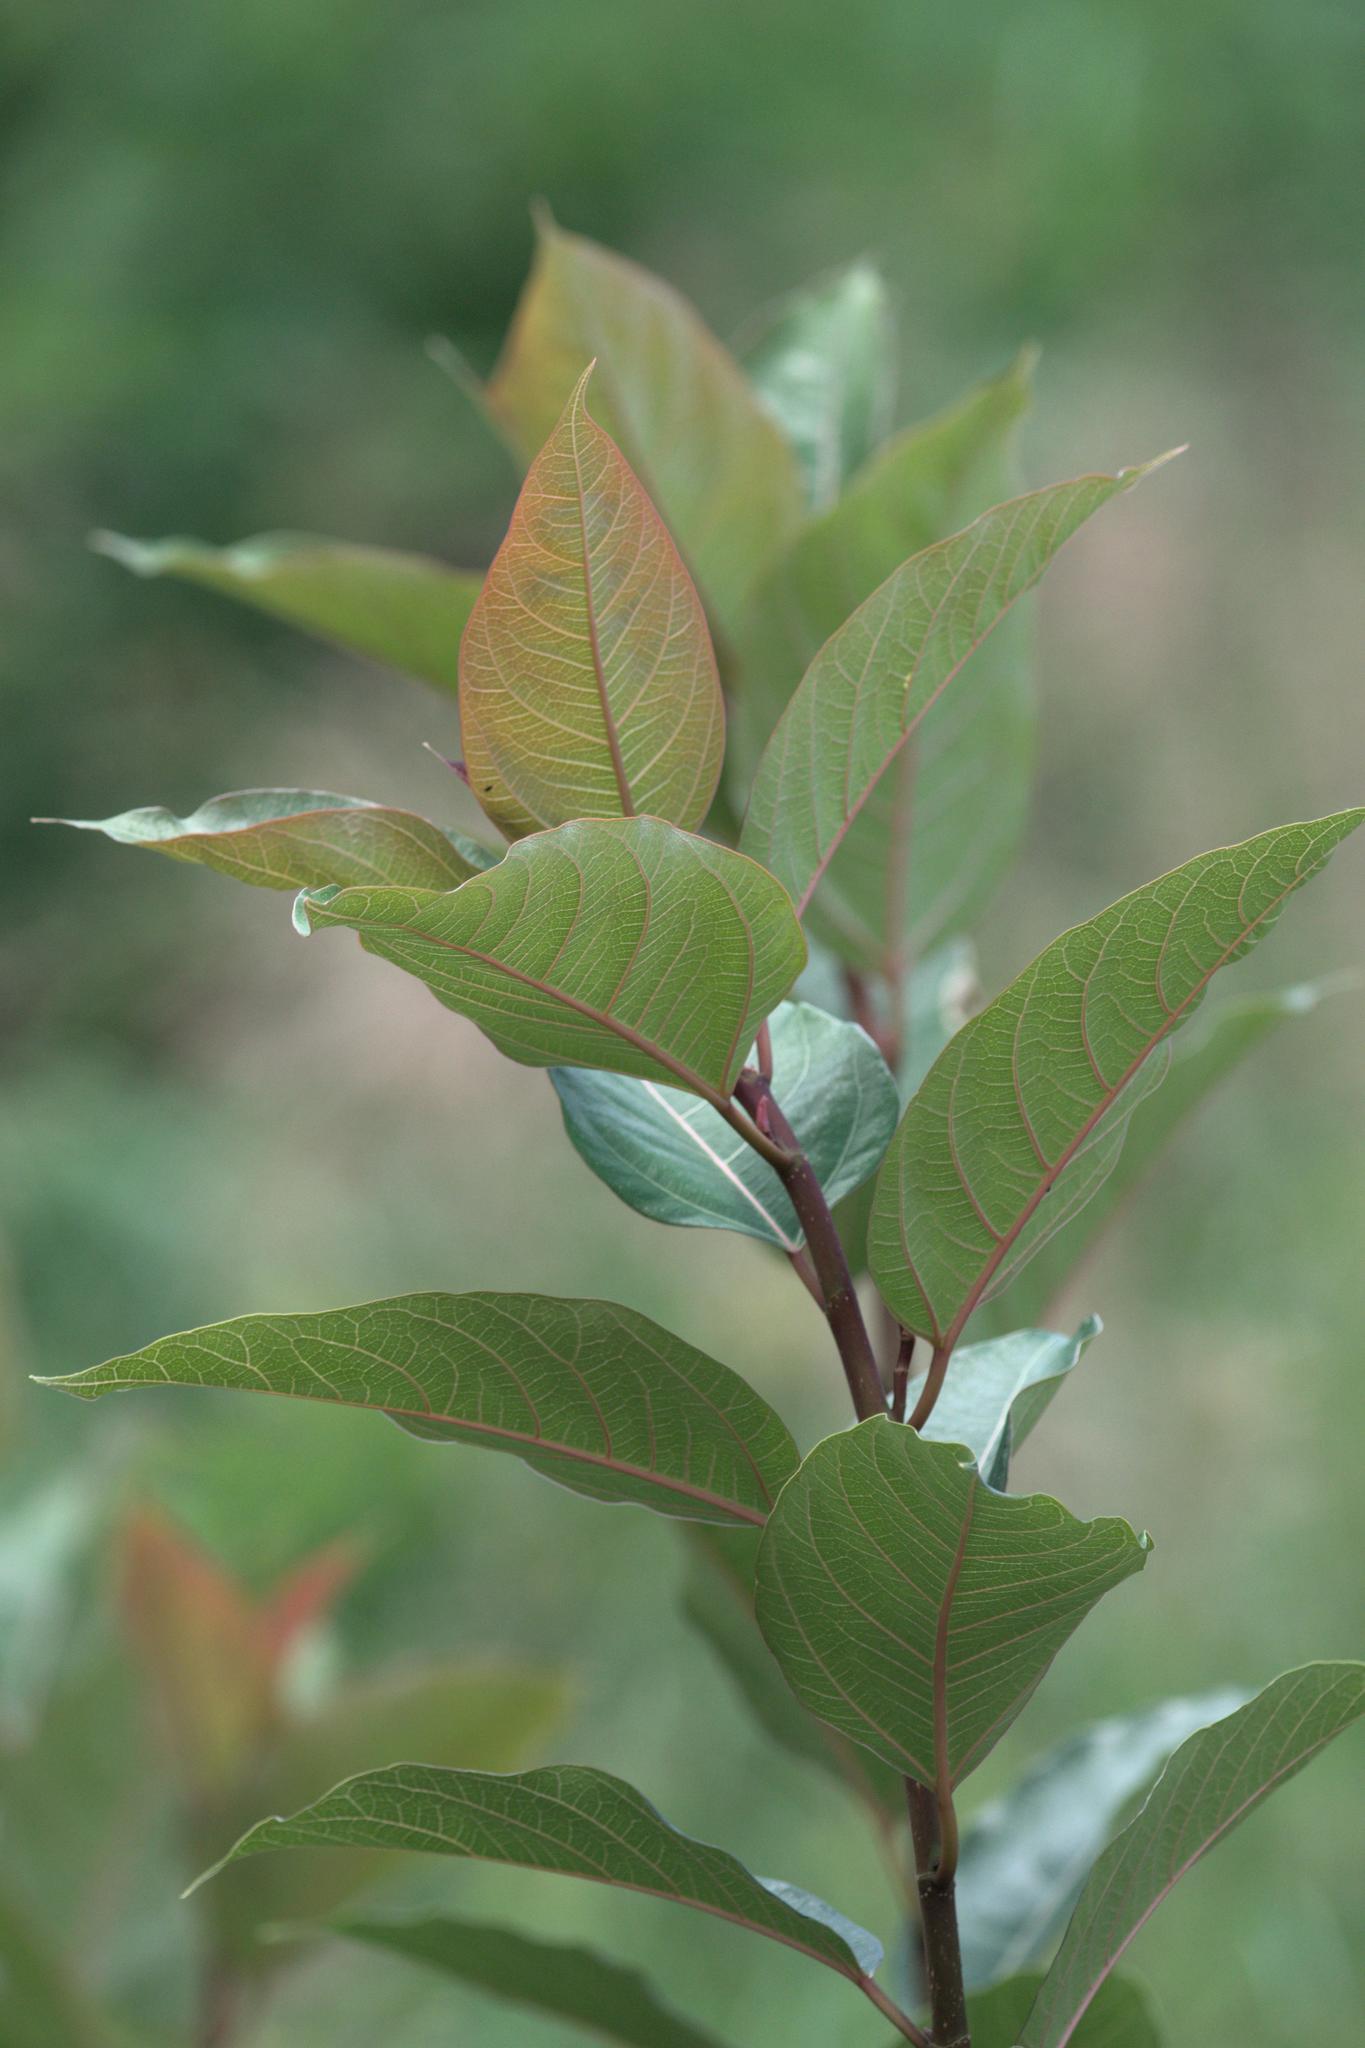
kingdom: Plantae
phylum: Tracheophyta
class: Magnoliopsida
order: Rosales
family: Moraceae
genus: Ficus
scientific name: Ficus neriifolia
